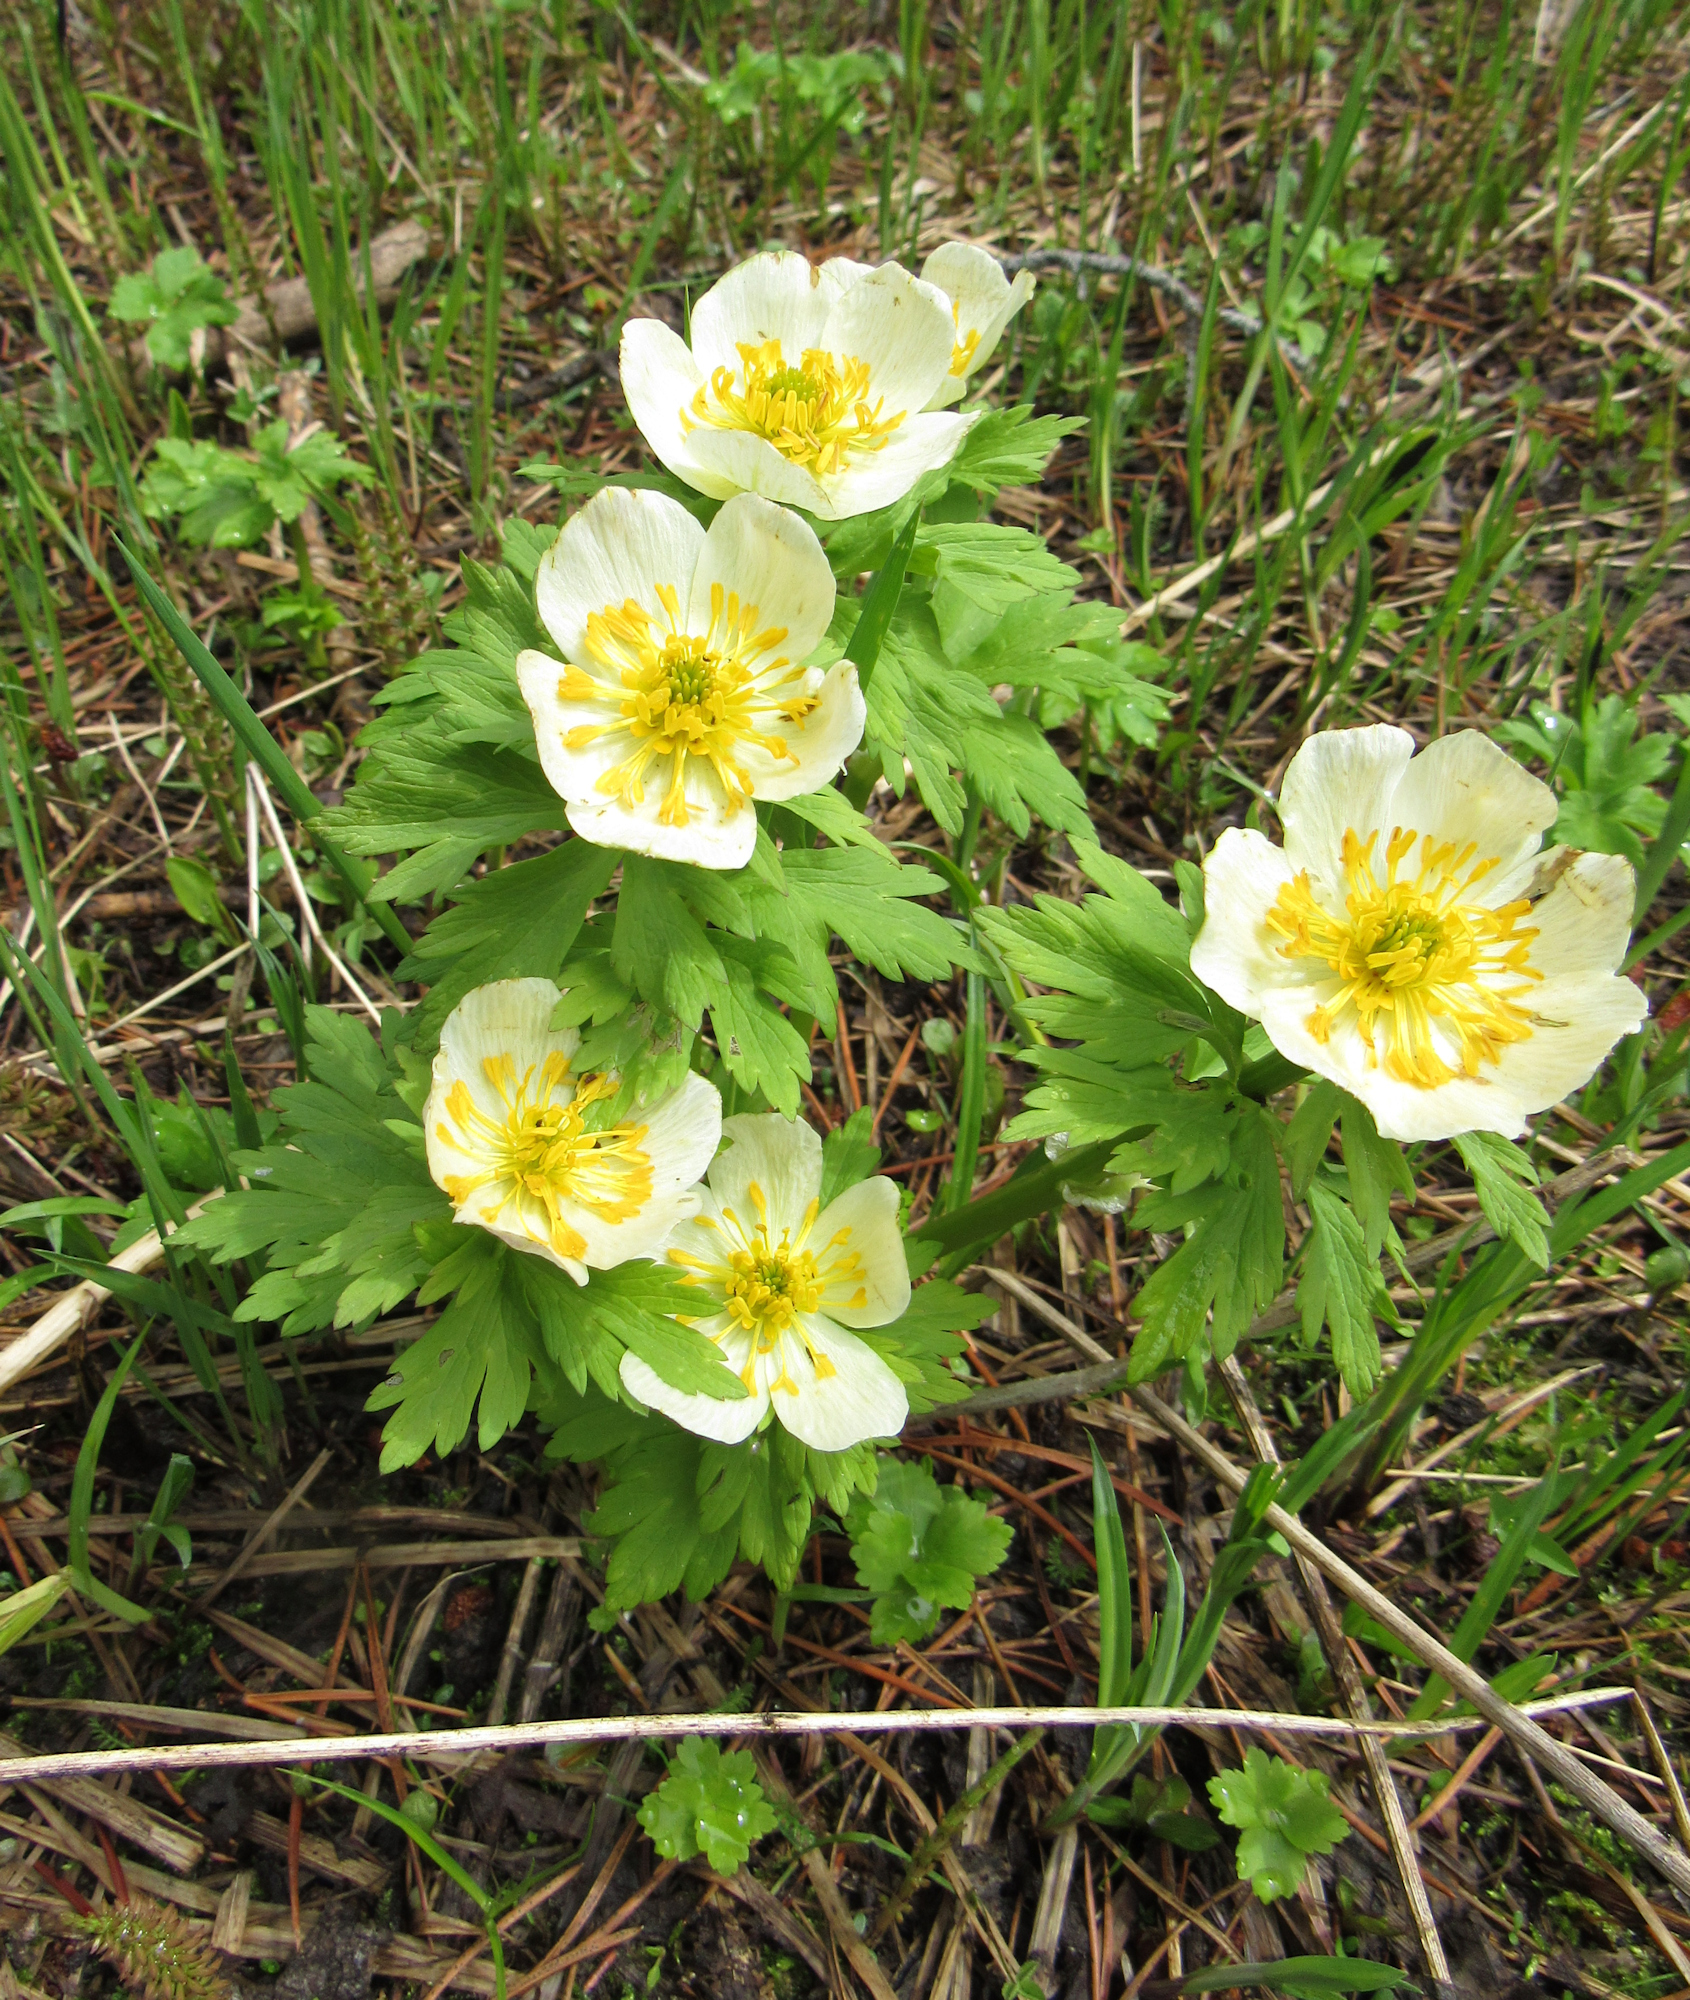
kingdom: Plantae
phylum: Tracheophyta
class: Magnoliopsida
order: Ranunculales
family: Ranunculaceae
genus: Trollius
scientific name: Trollius laxus
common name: American globeflower
